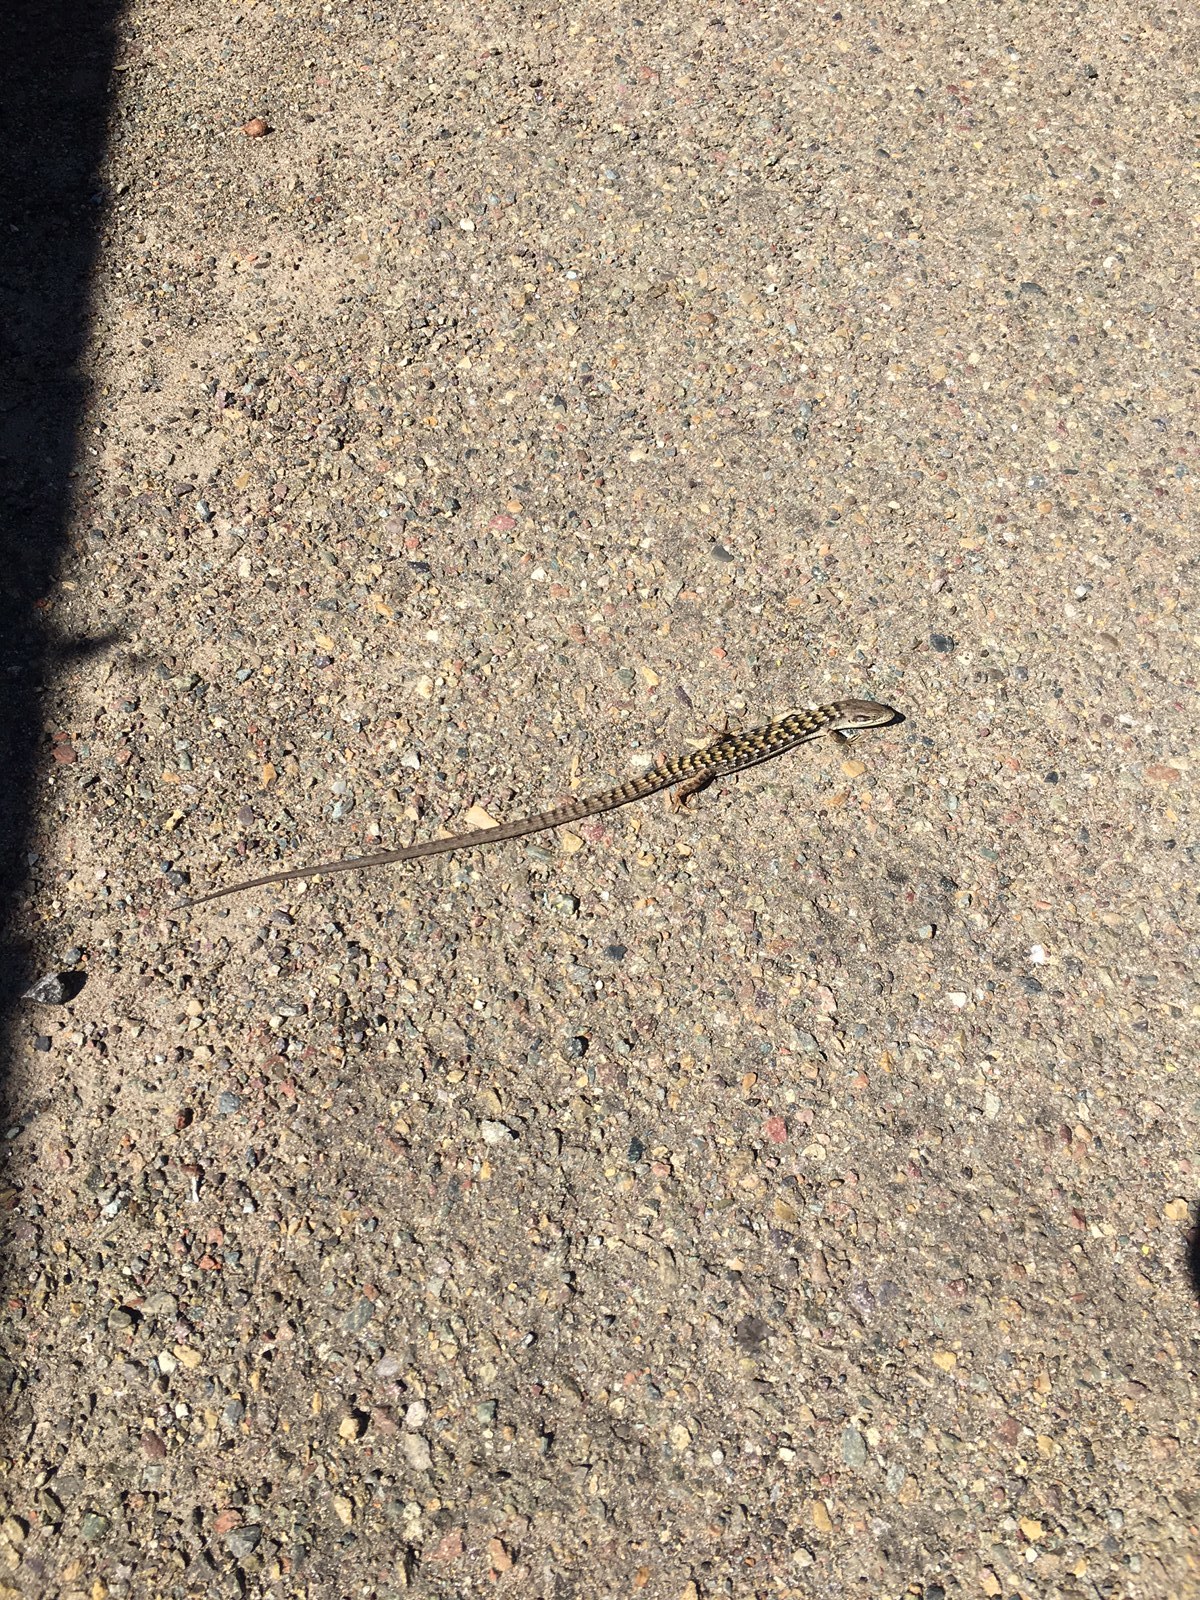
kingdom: Animalia
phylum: Chordata
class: Squamata
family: Anguidae
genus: Elgaria
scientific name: Elgaria multicarinata
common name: Southern alligator lizard
